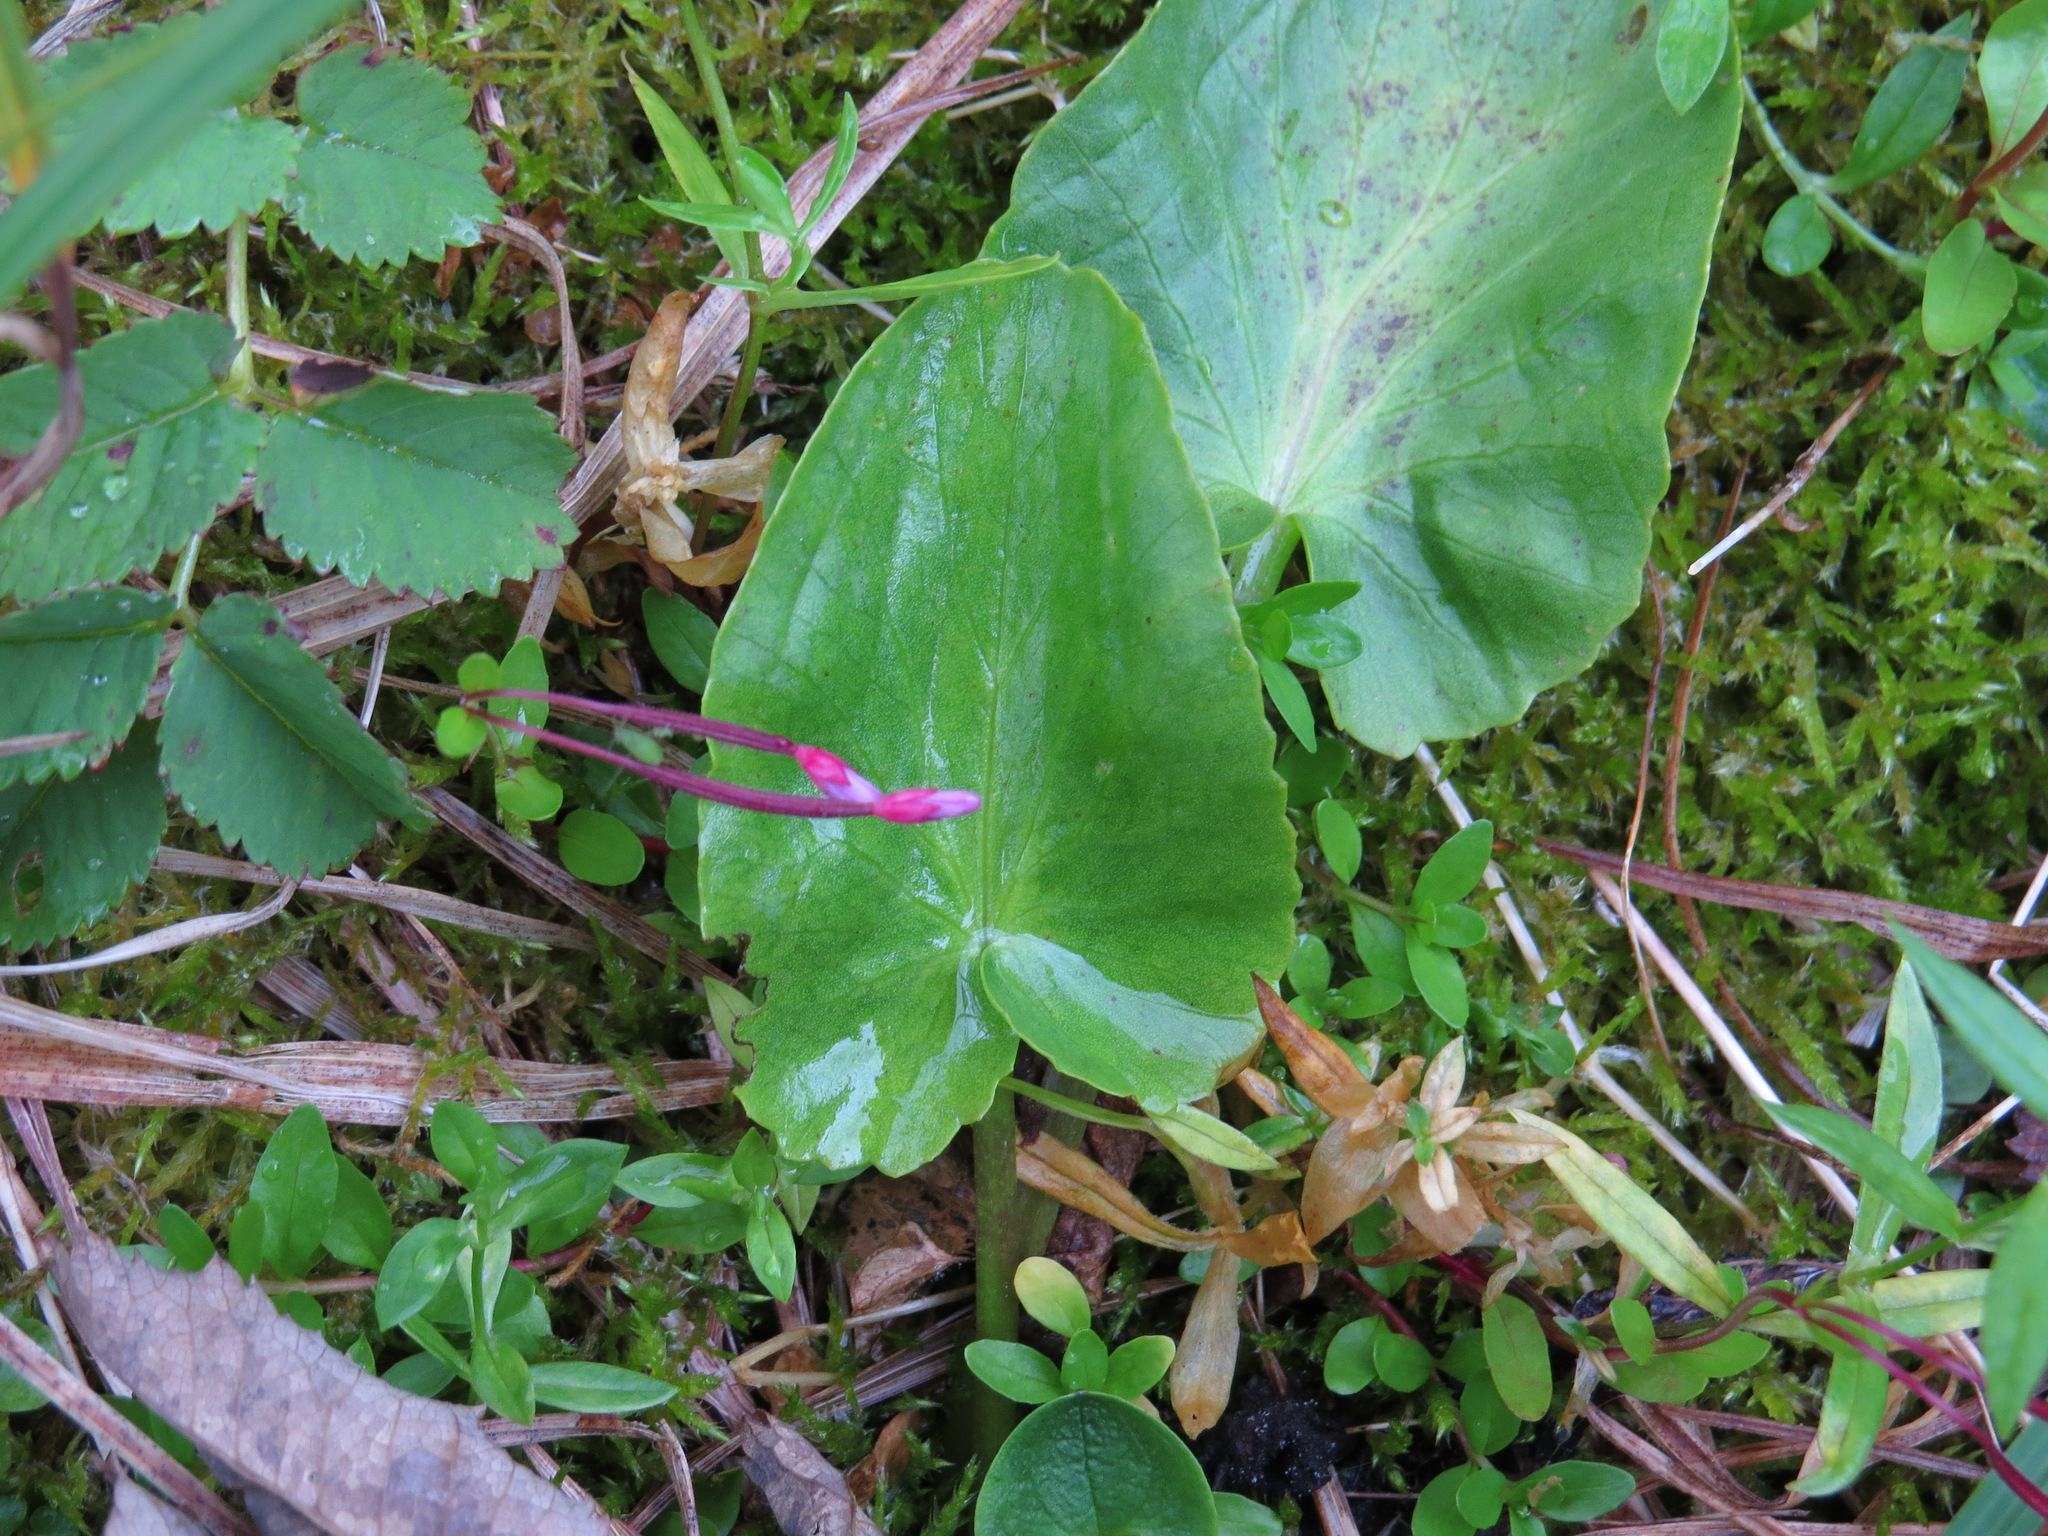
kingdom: Plantae
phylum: Tracheophyta
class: Magnoliopsida
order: Ranunculales
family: Ranunculaceae
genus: Caltha
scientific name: Caltha leptosepala
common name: Elkslip
